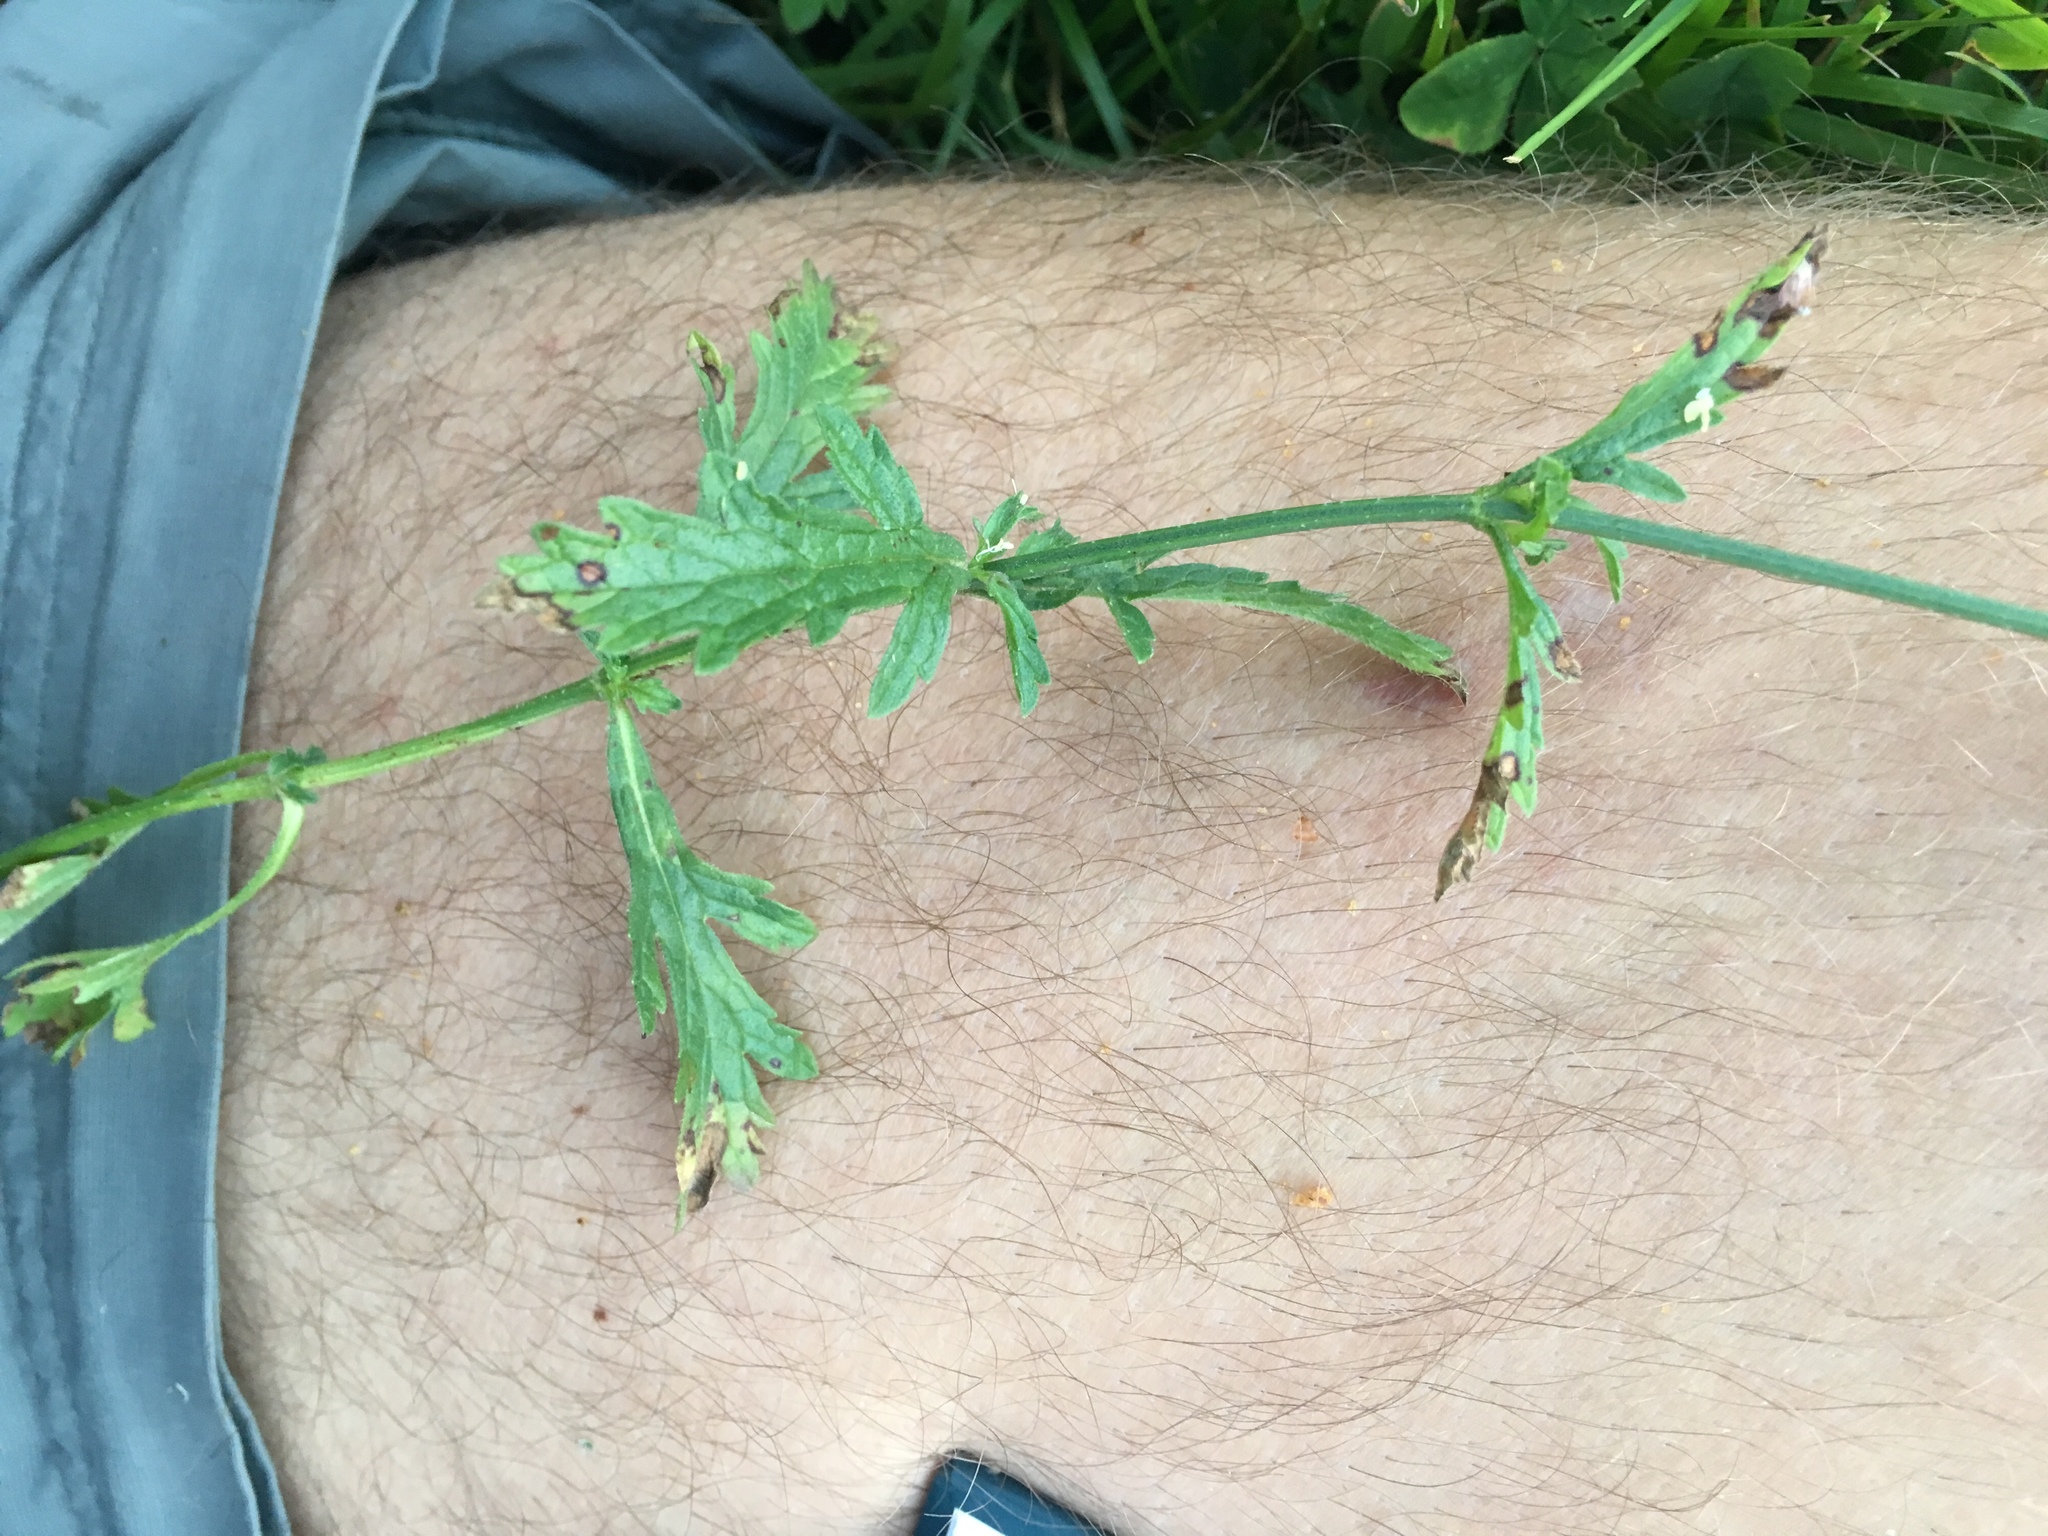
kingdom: Plantae
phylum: Tracheophyta
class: Magnoliopsida
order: Lamiales
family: Verbenaceae
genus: Verbena
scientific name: Verbena officinalis
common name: Vervain
